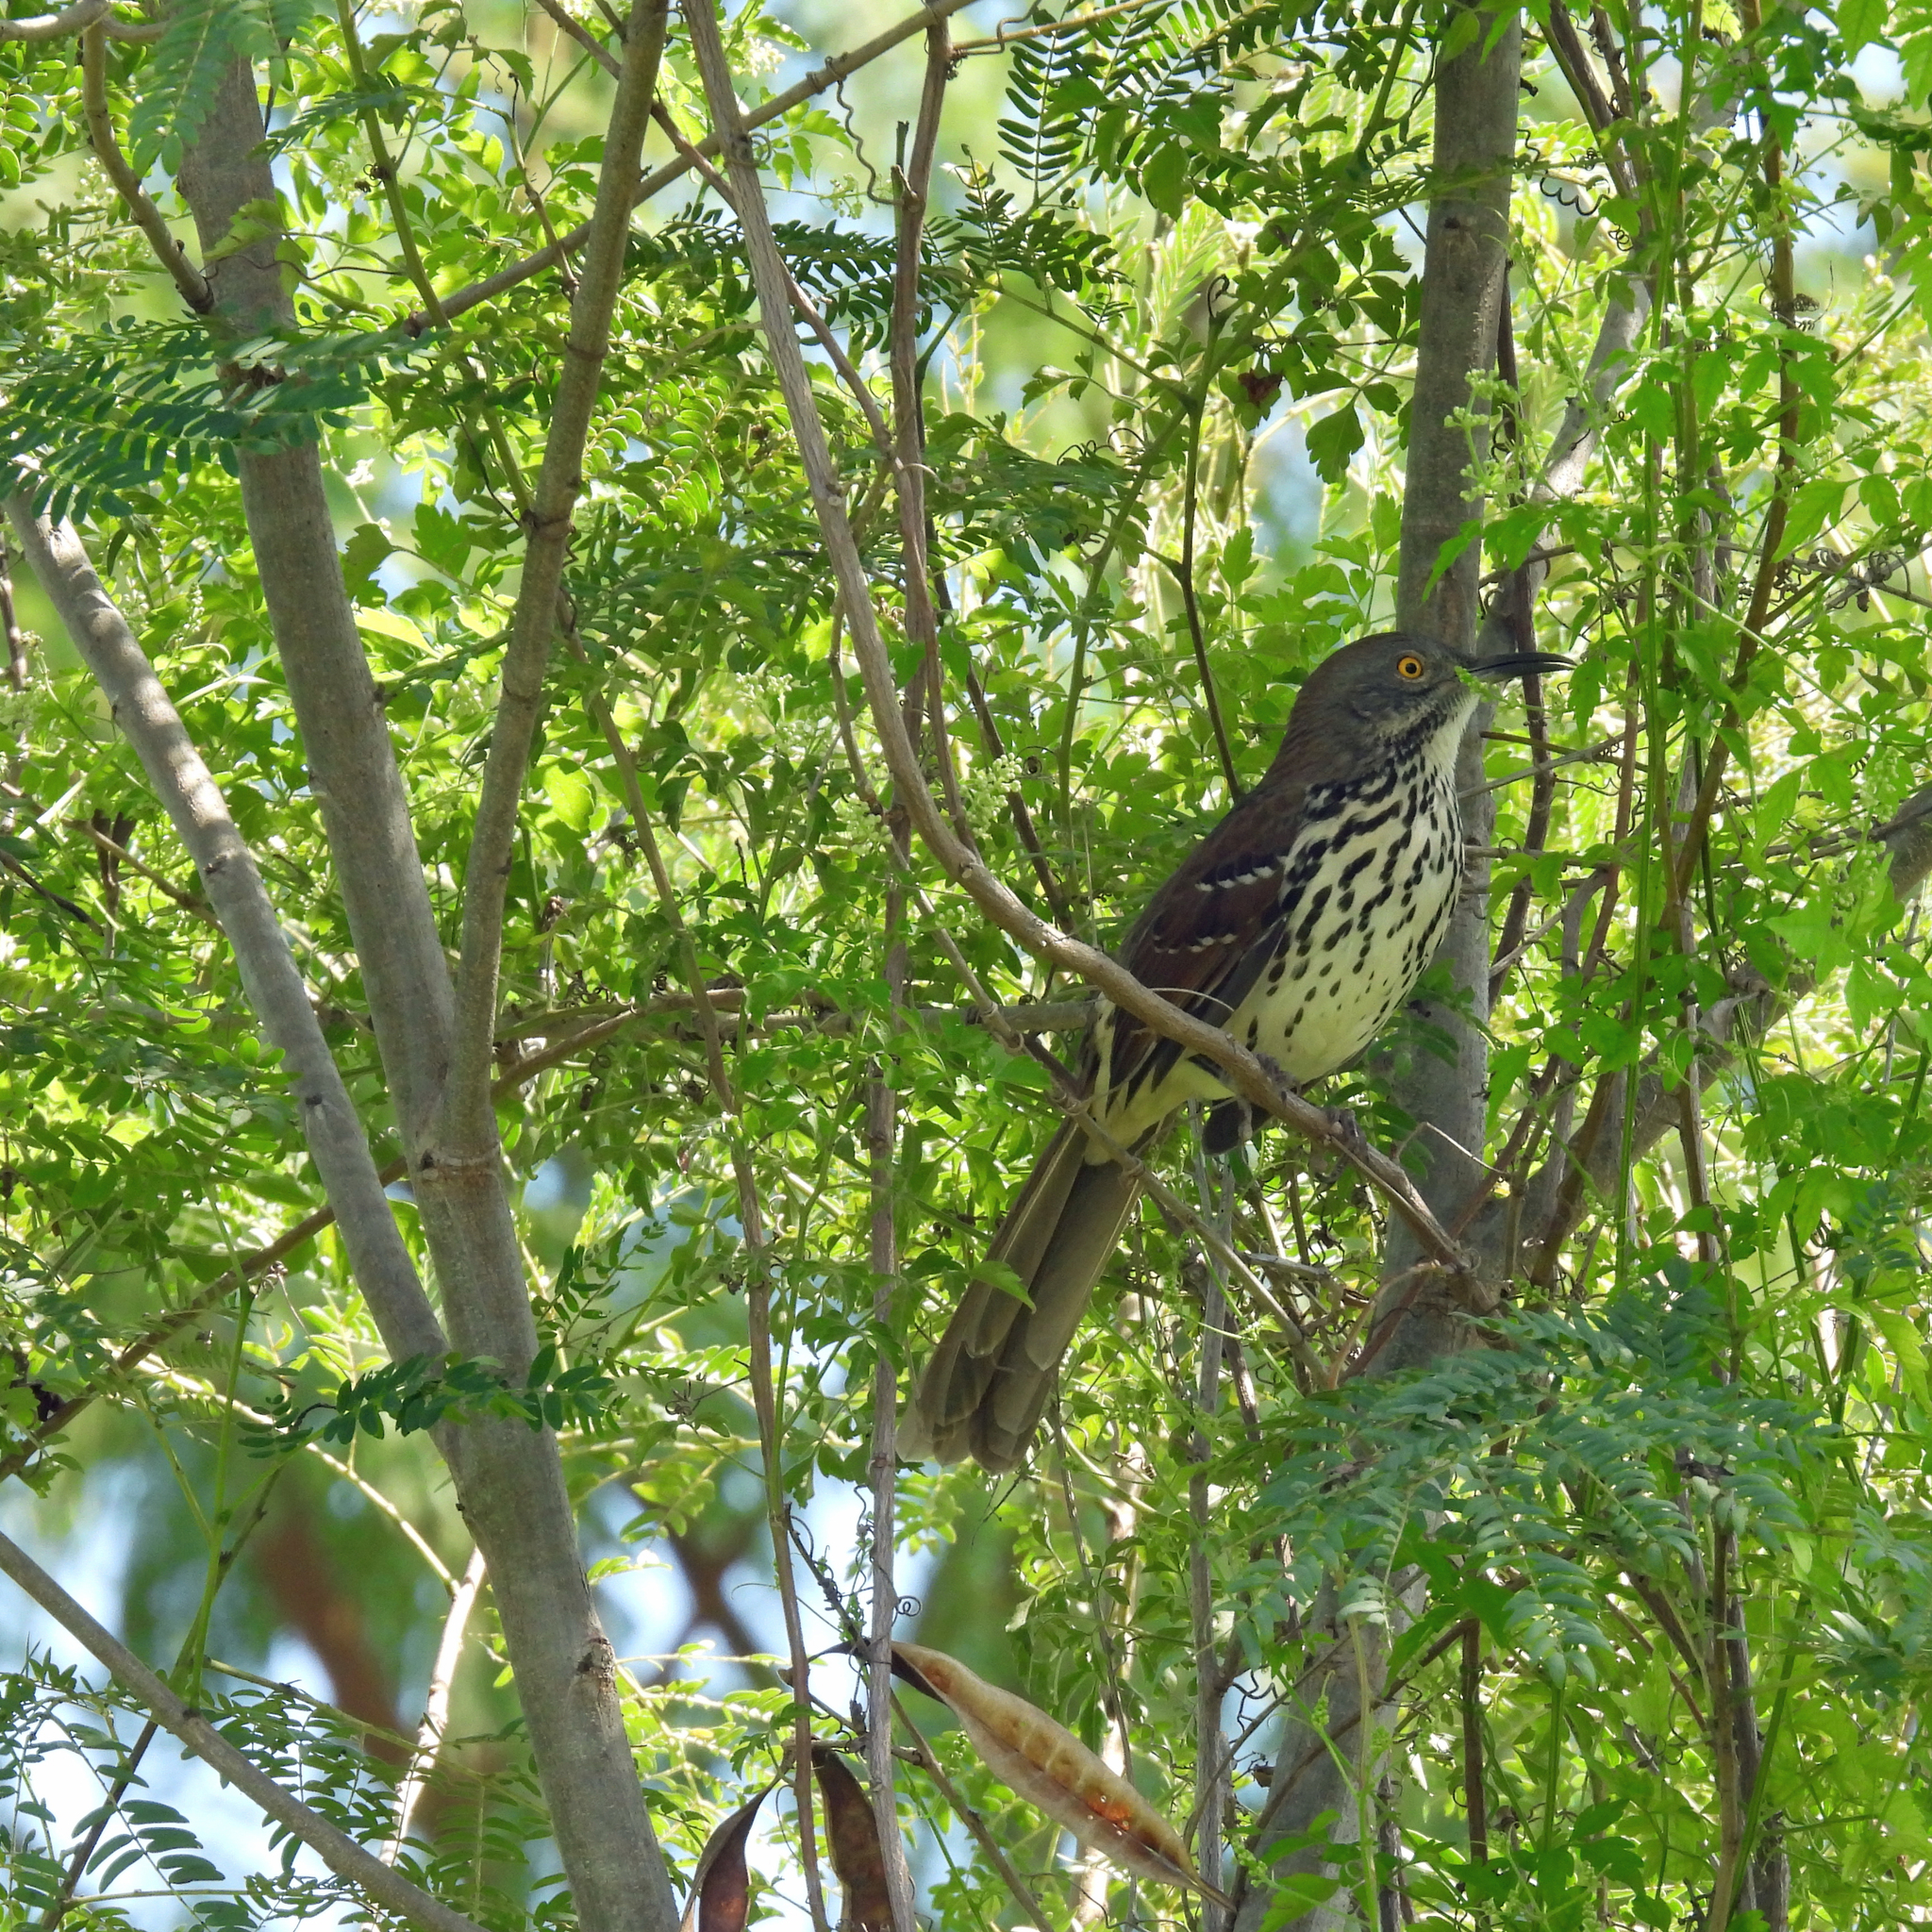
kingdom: Animalia
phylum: Chordata
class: Aves
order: Passeriformes
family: Mimidae
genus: Toxostoma
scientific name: Toxostoma longirostre
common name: Long-billed thrasher
